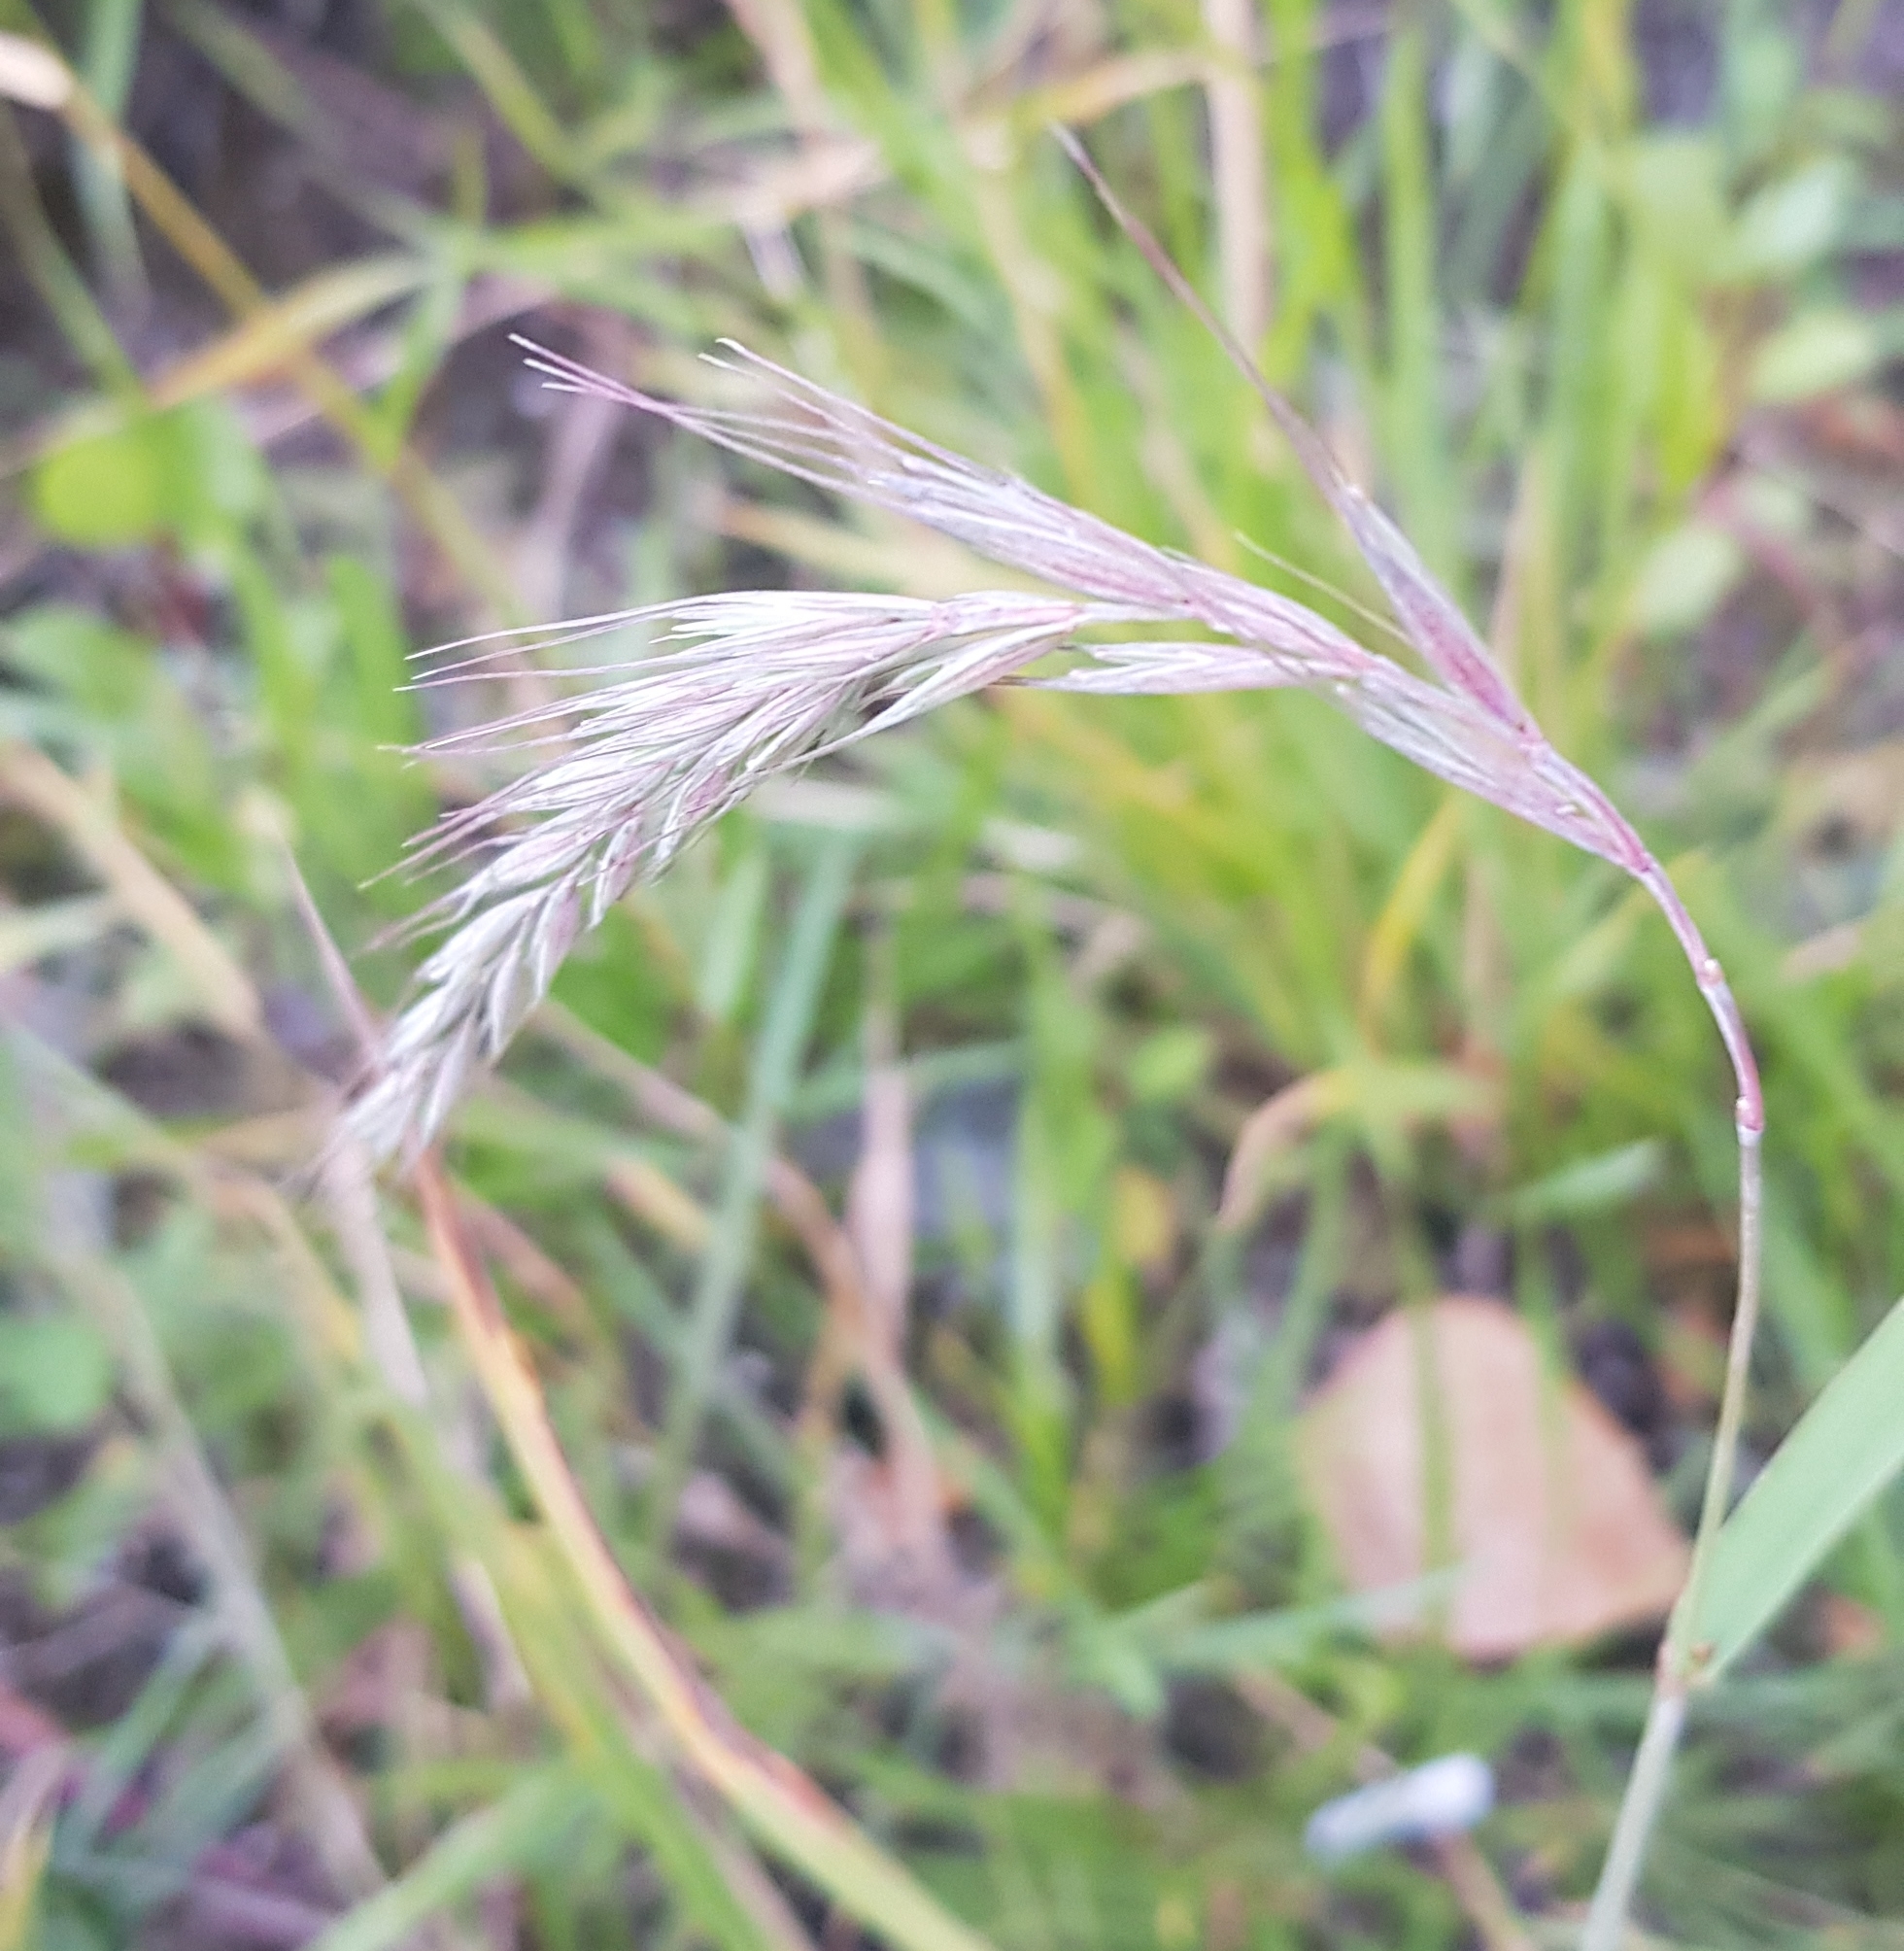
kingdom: Plantae
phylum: Tracheophyta
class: Liliopsida
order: Poales
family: Poaceae
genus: Elymus
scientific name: Elymus sibiricus
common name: Siberian wildrye
